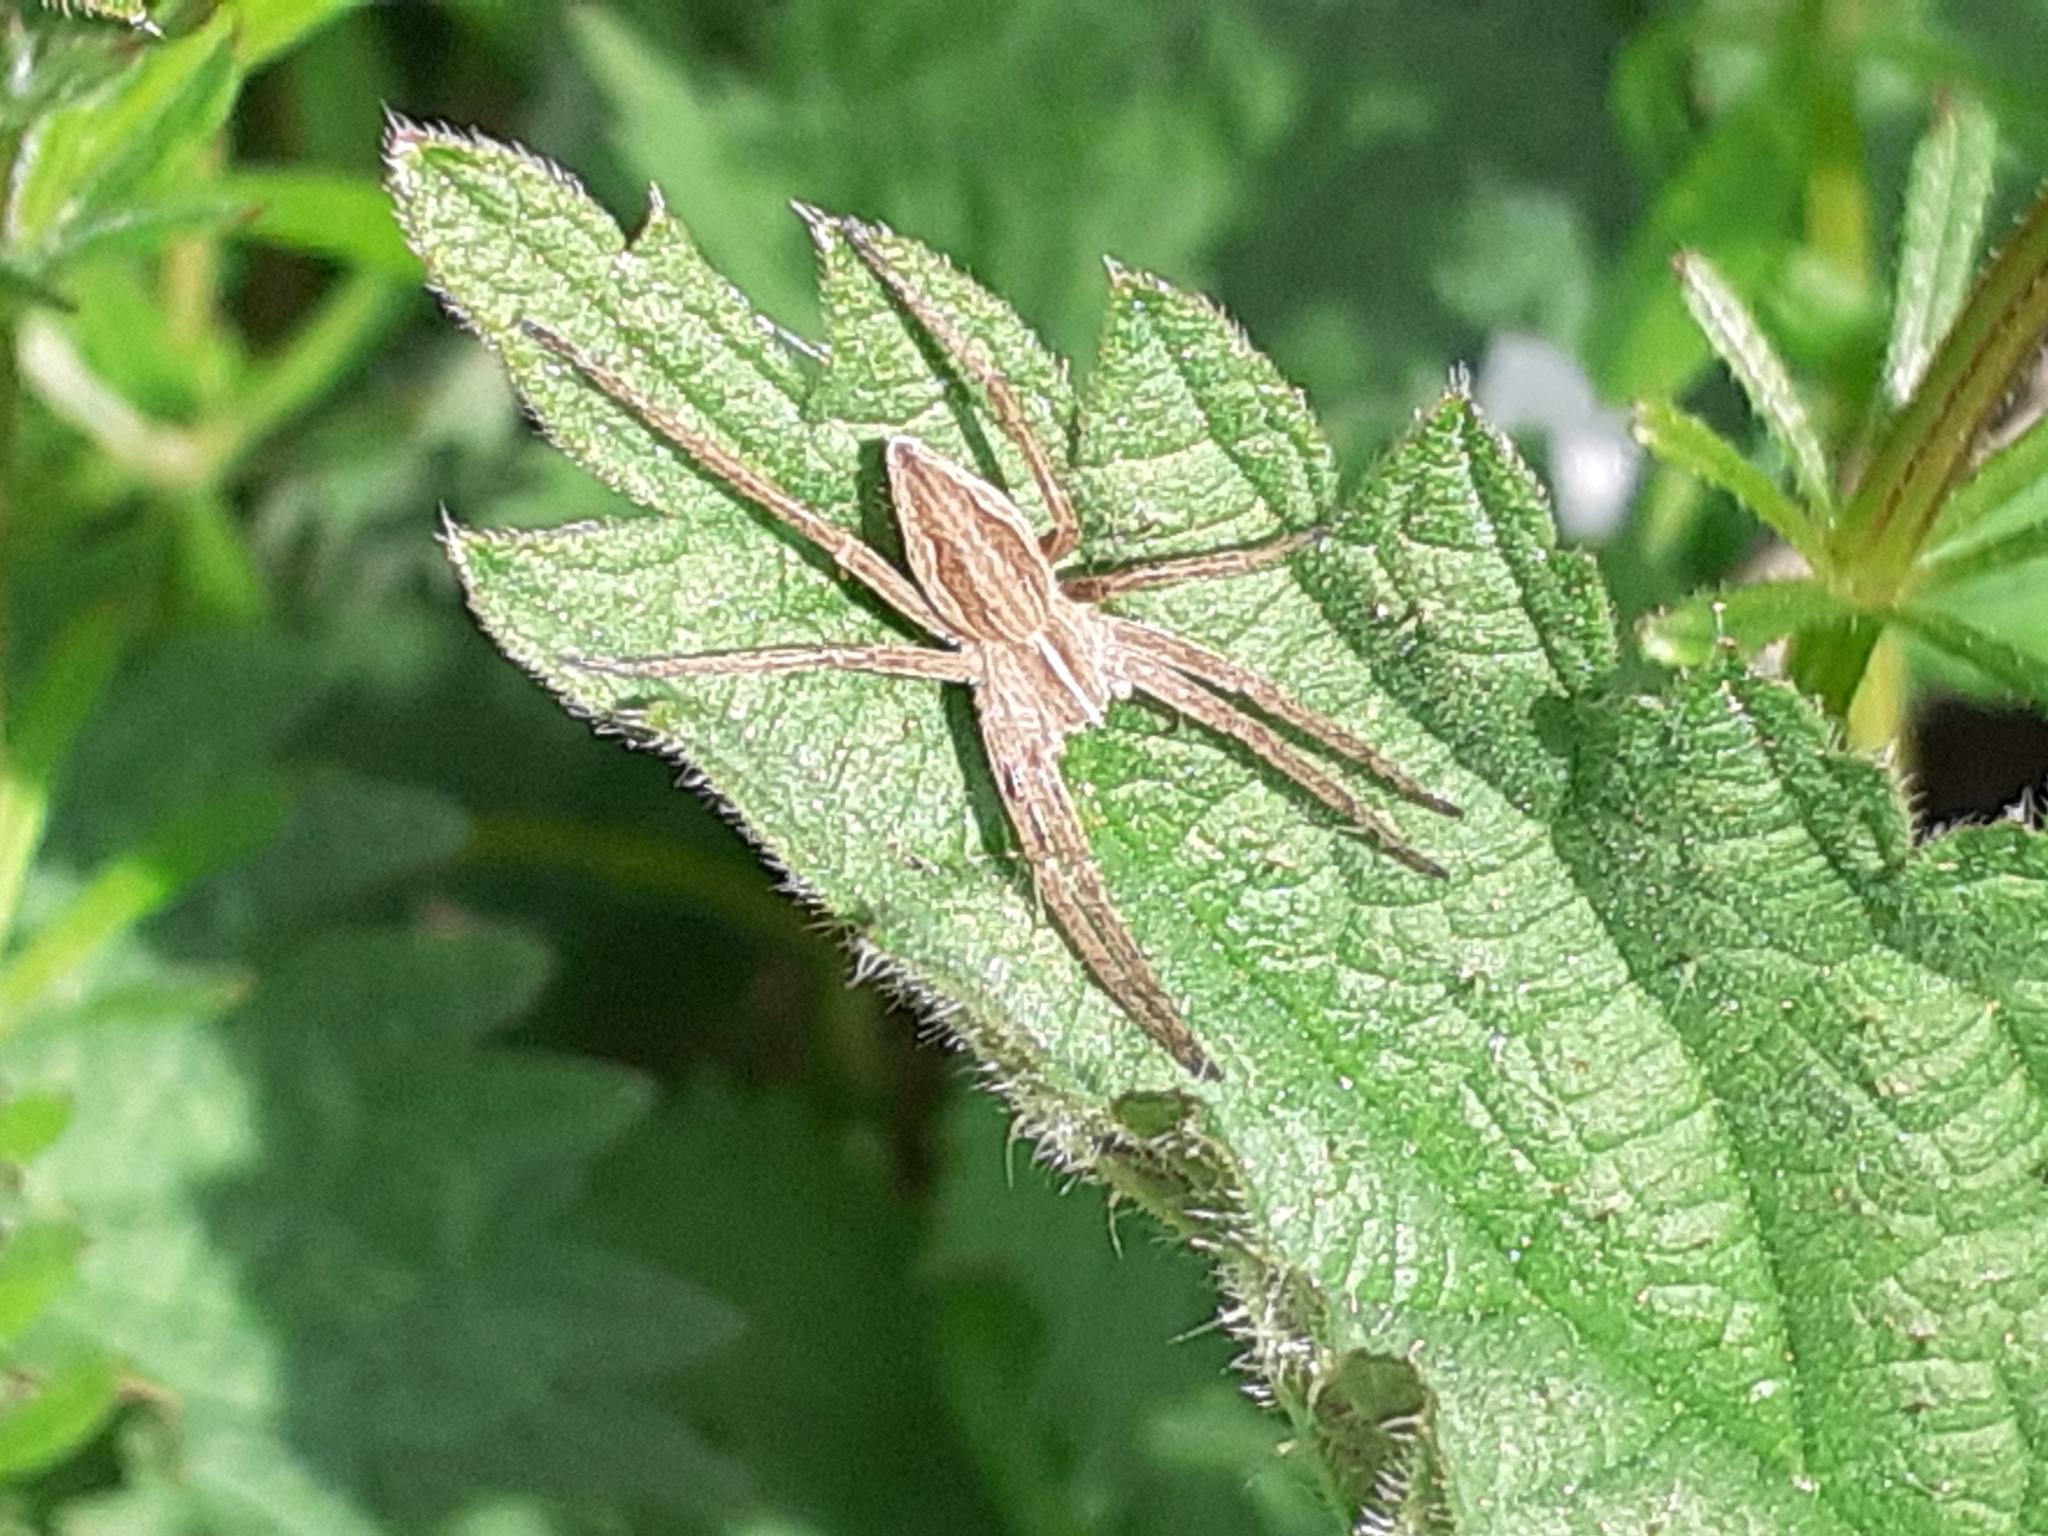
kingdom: Animalia
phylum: Arthropoda
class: Arachnida
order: Araneae
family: Pisauridae
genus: Pisaura
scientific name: Pisaura mirabilis
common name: Tent spider
